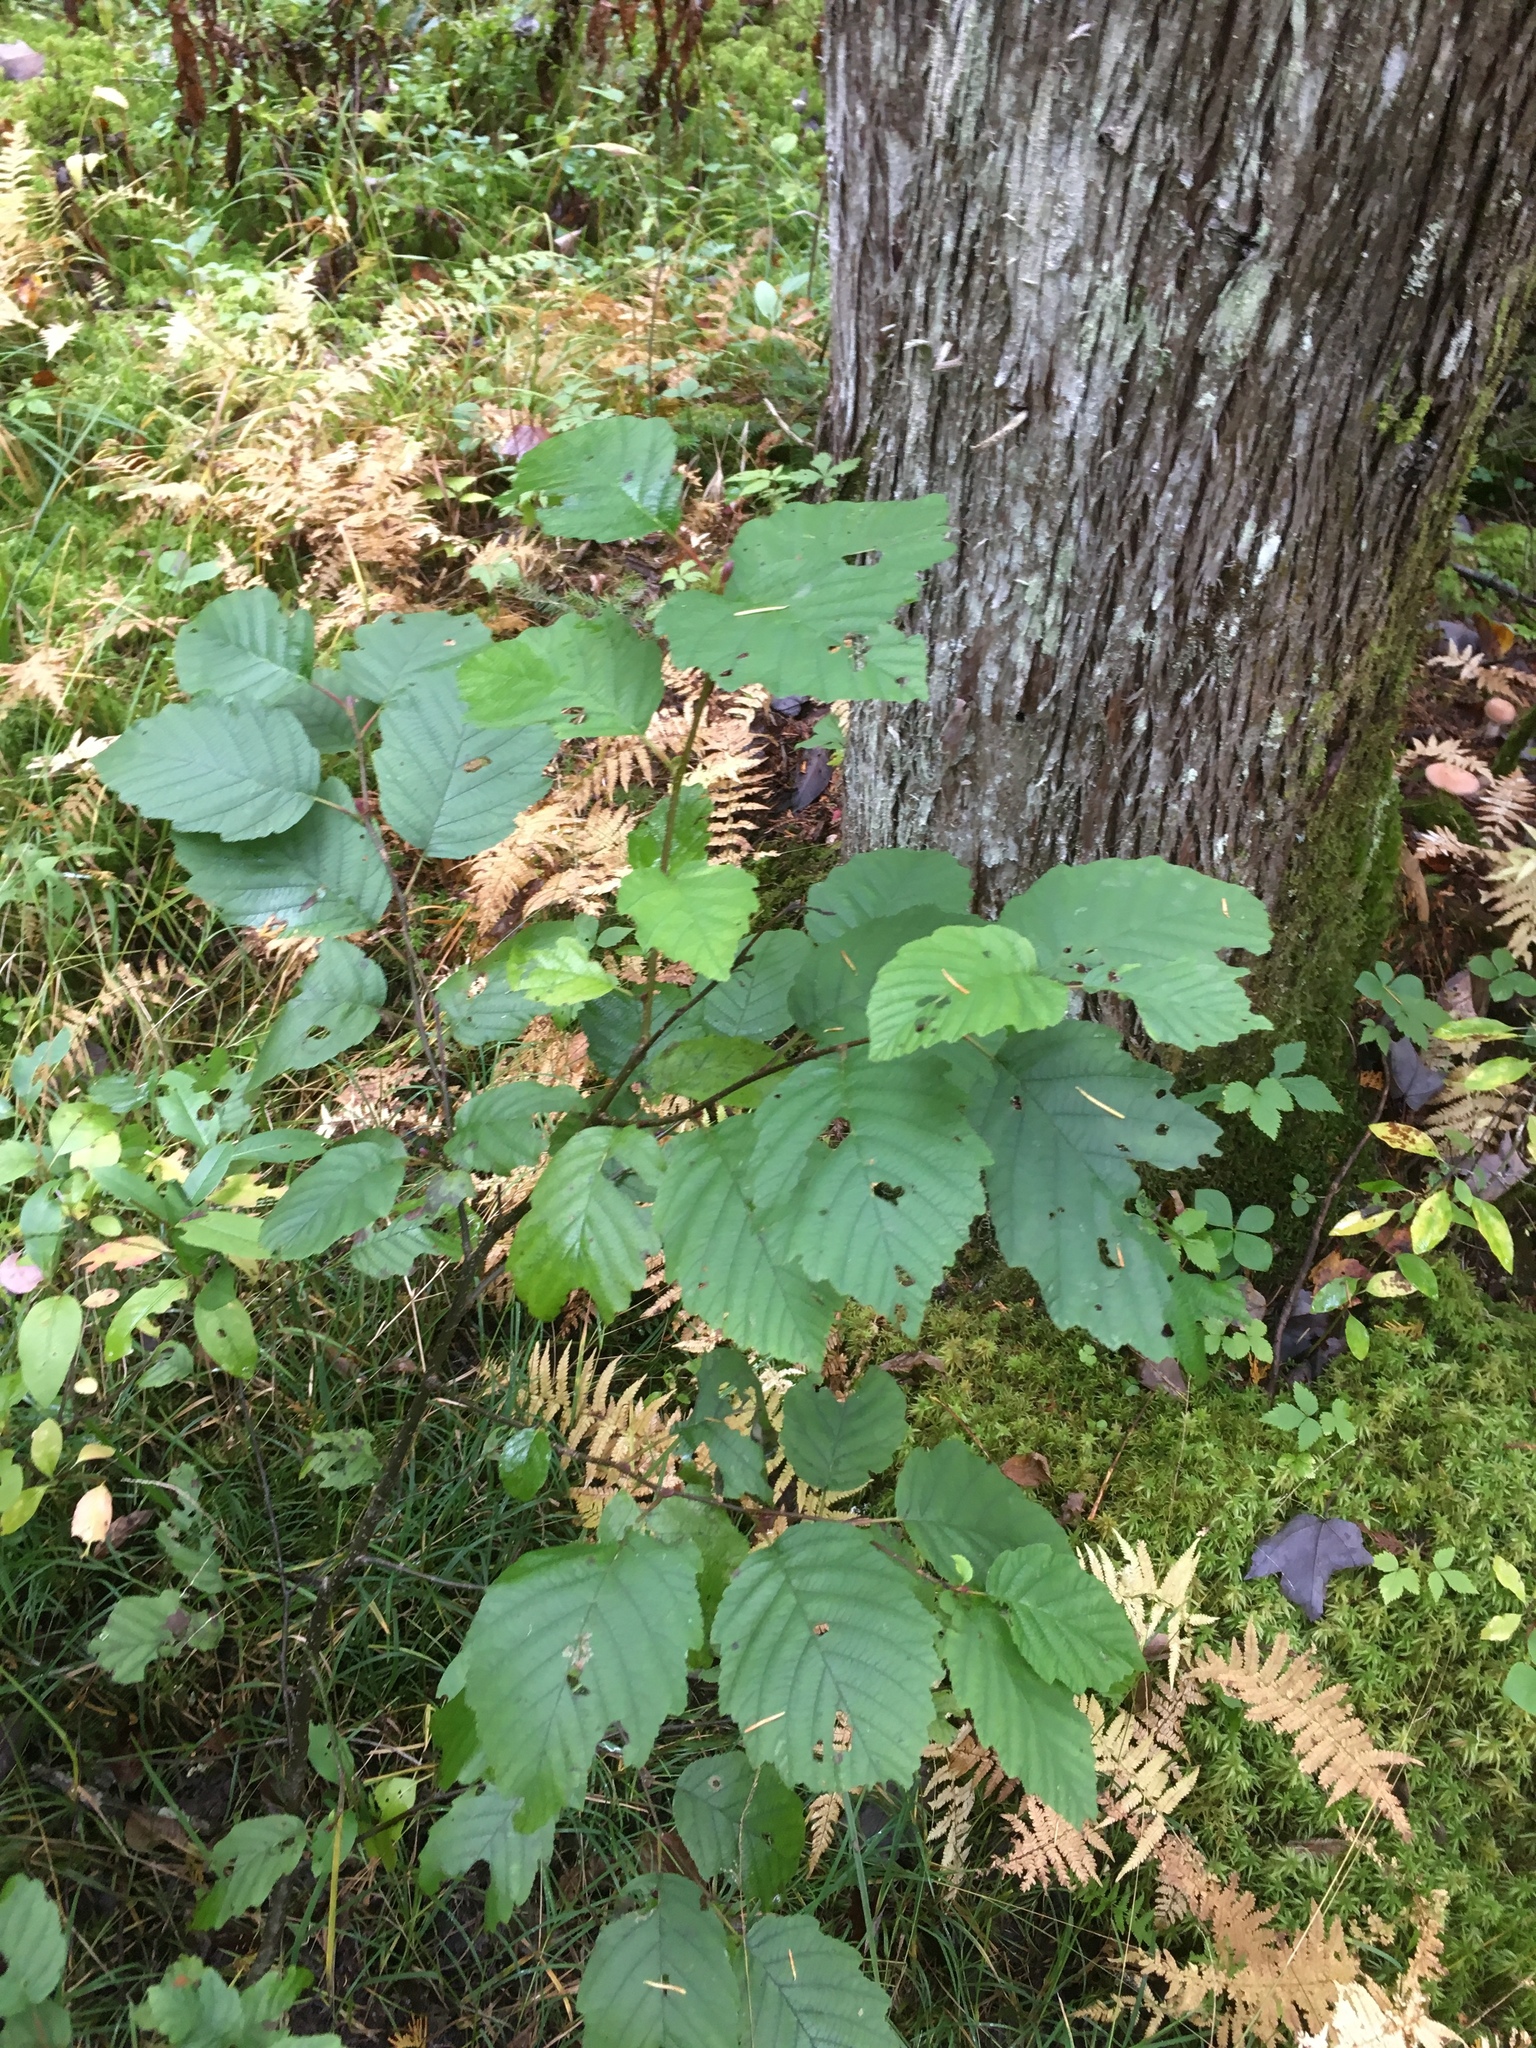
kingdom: Plantae
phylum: Tracheophyta
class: Magnoliopsida
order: Fagales
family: Betulaceae
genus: Alnus
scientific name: Alnus incana
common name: Grey alder
